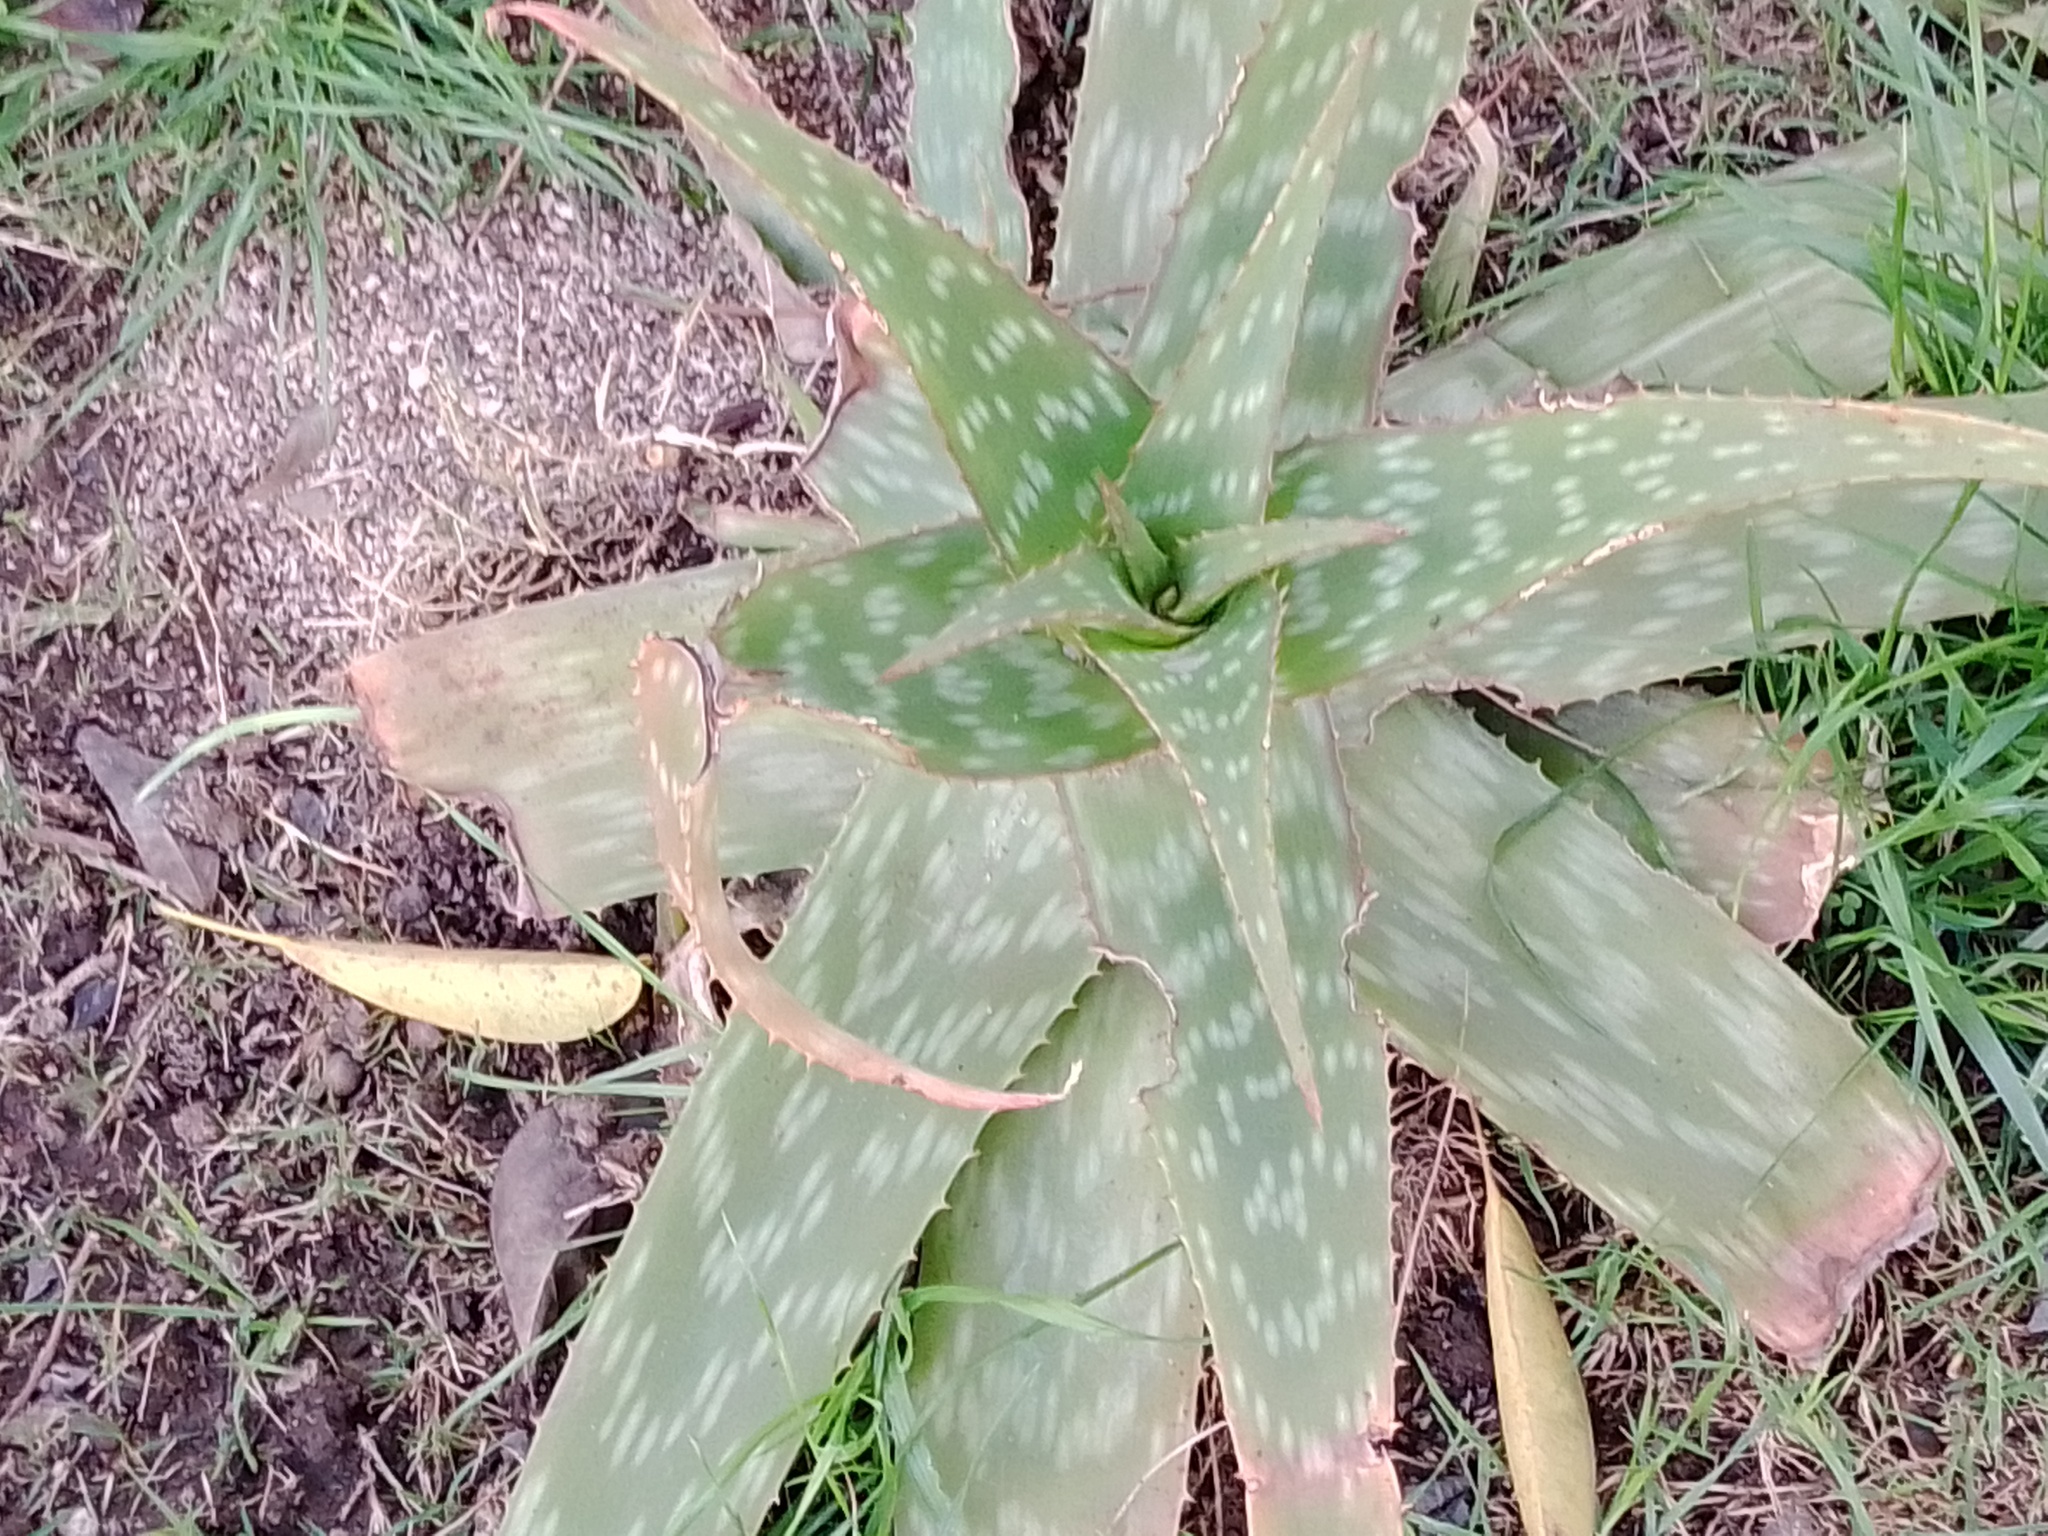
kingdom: Plantae
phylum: Tracheophyta
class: Liliopsida
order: Asparagales
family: Asphodelaceae
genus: Aloe
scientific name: Aloe maculata
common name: Broadleaf aloe
